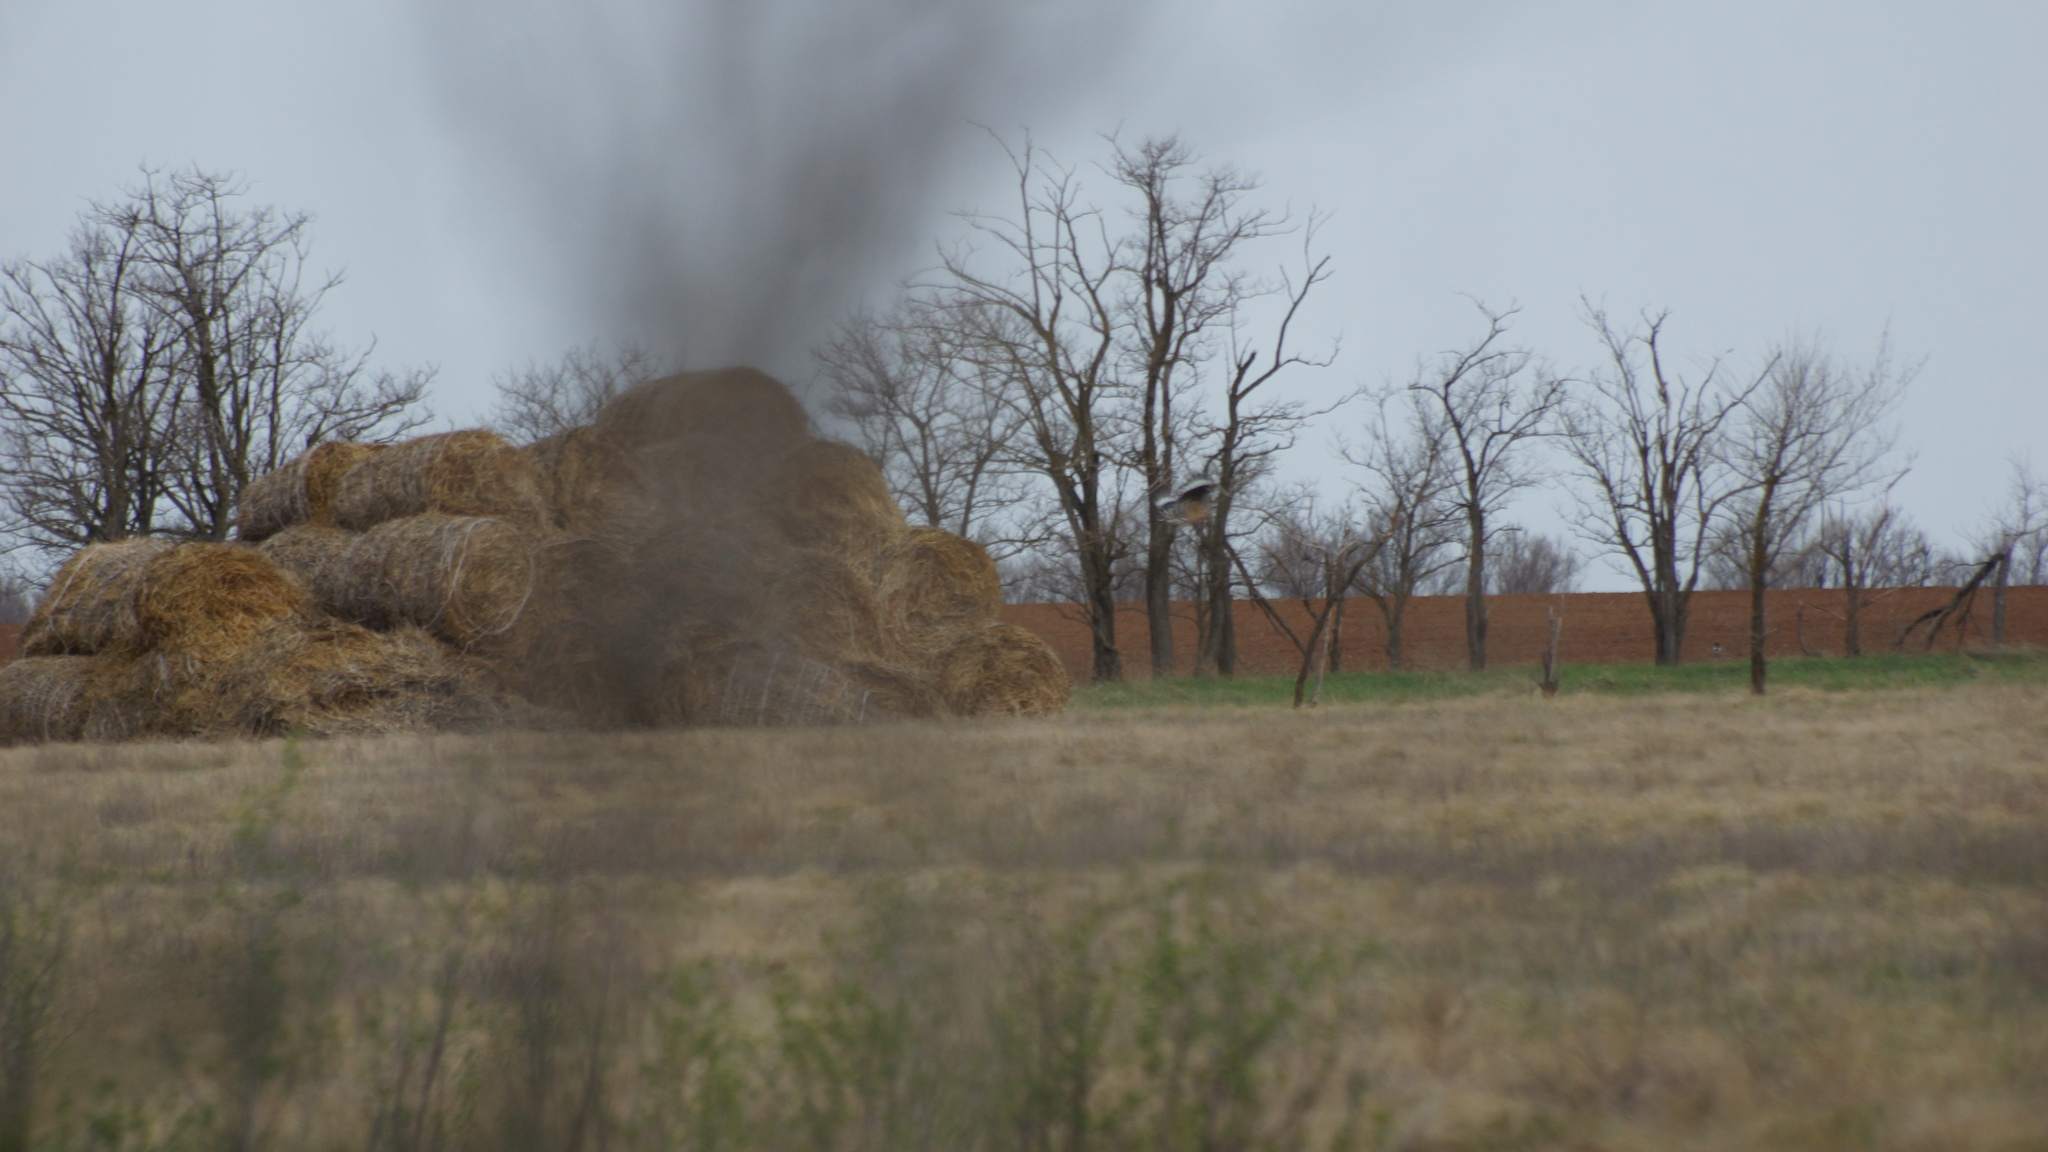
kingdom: Animalia
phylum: Chordata
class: Aves
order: Bucerotiformes
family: Upupidae
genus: Upupa
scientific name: Upupa epops
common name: Eurasian hoopoe
